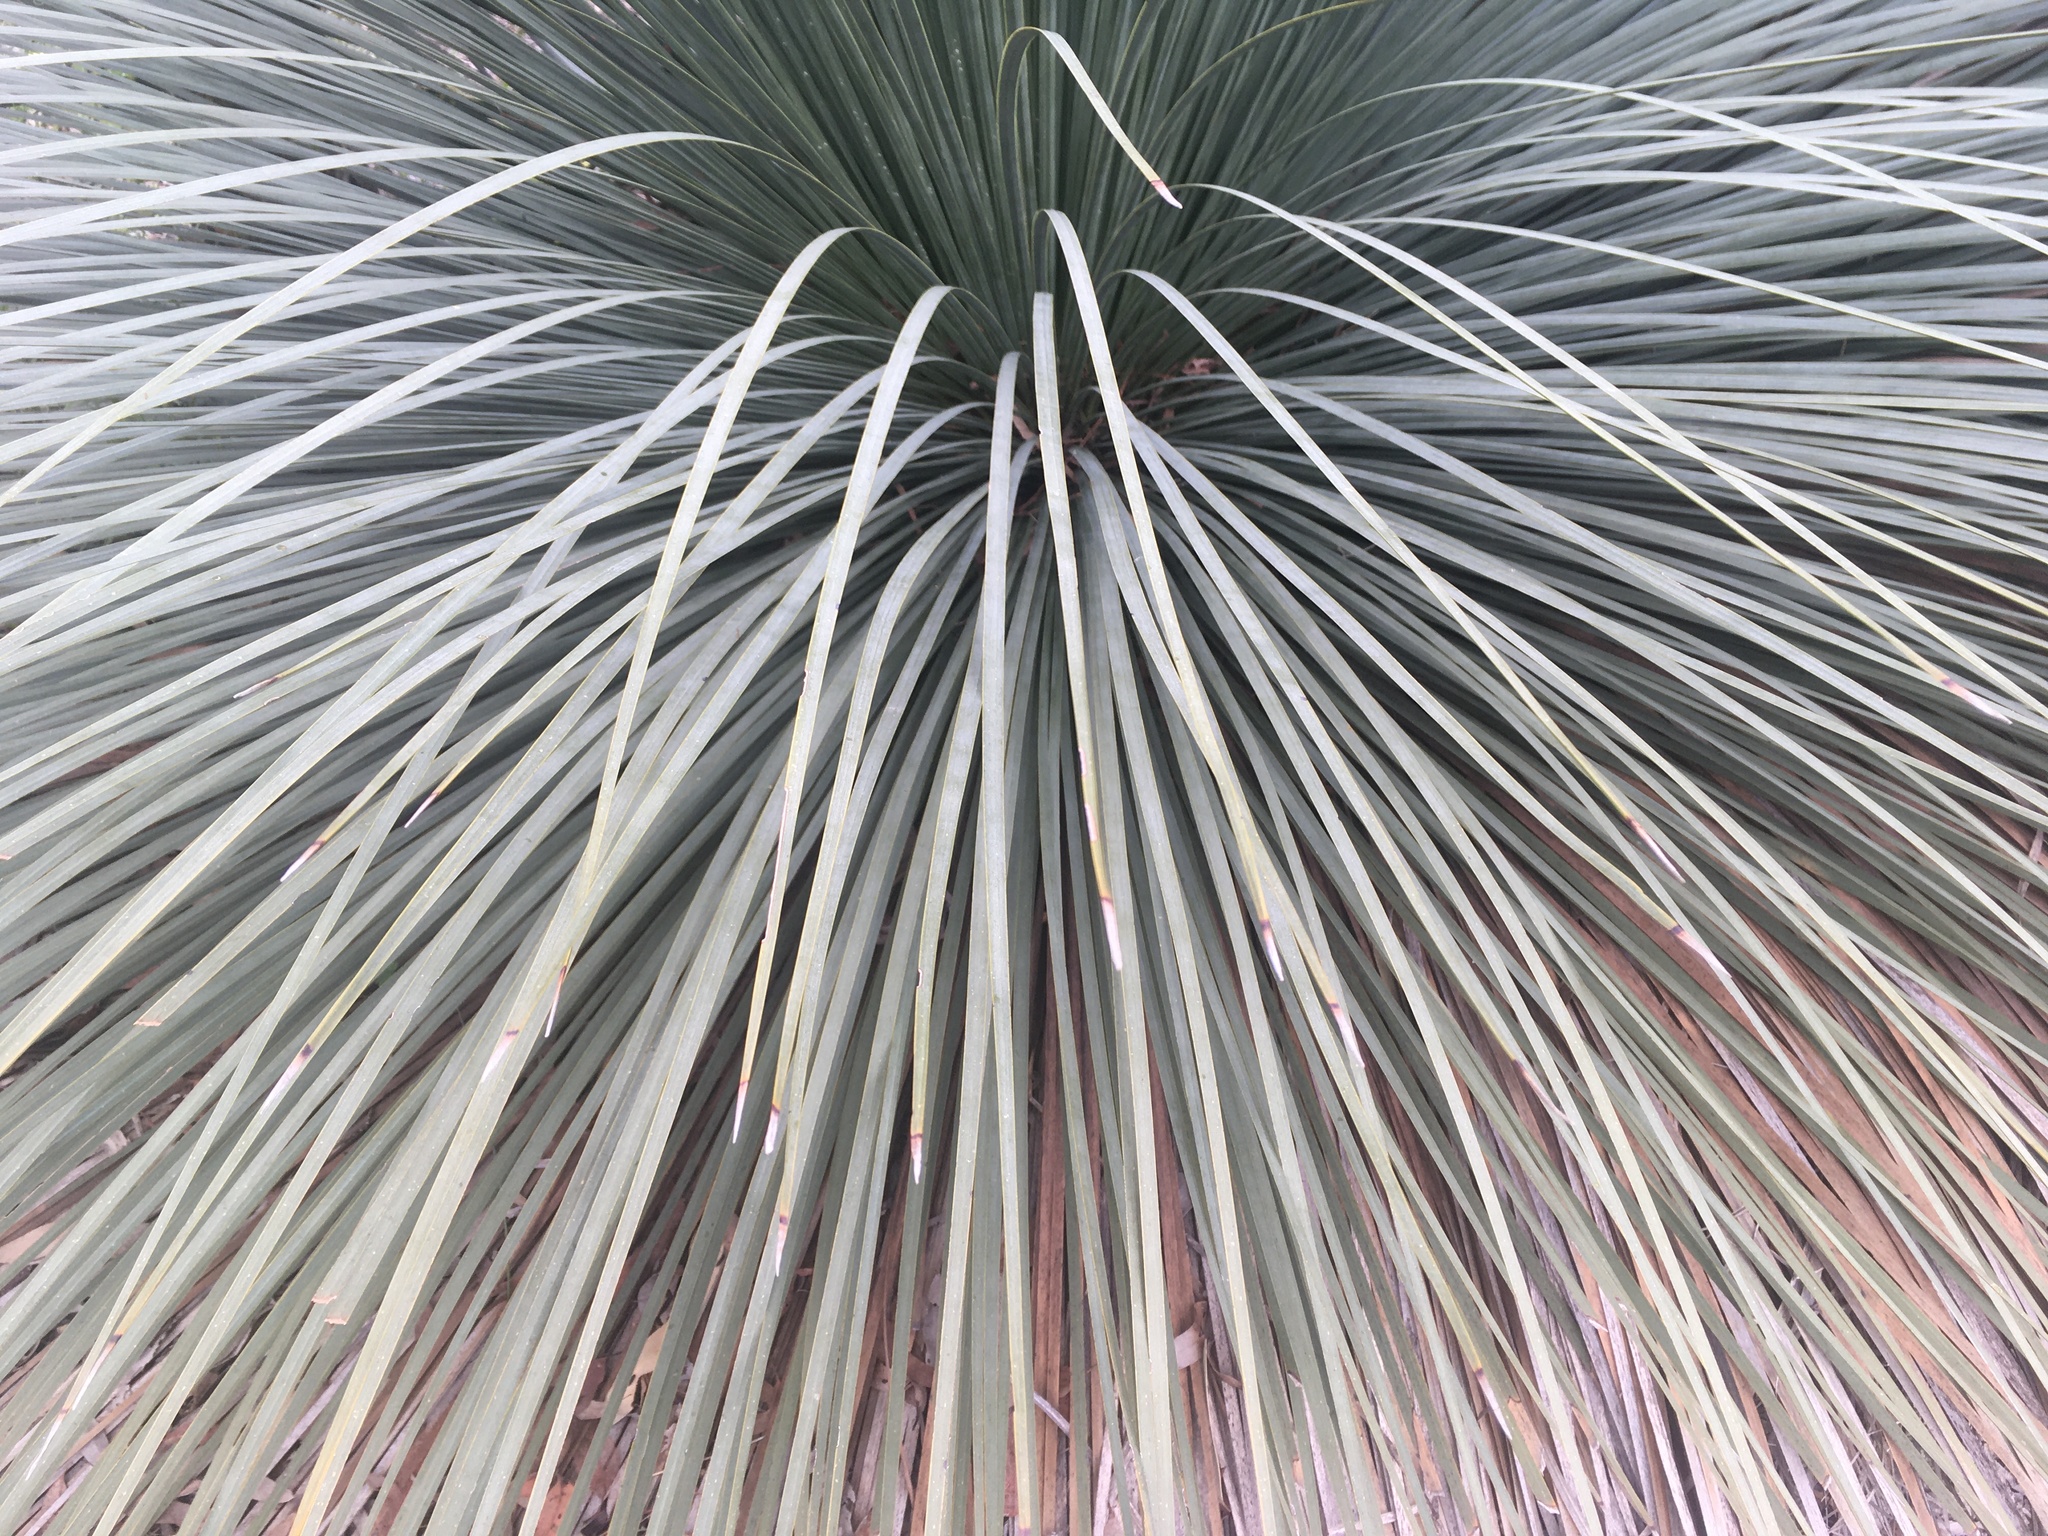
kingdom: Plantae
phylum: Tracheophyta
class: Liliopsida
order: Asparagales
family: Asphodelaceae
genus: Xanthorrhoea
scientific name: Xanthorrhoea semiplana
